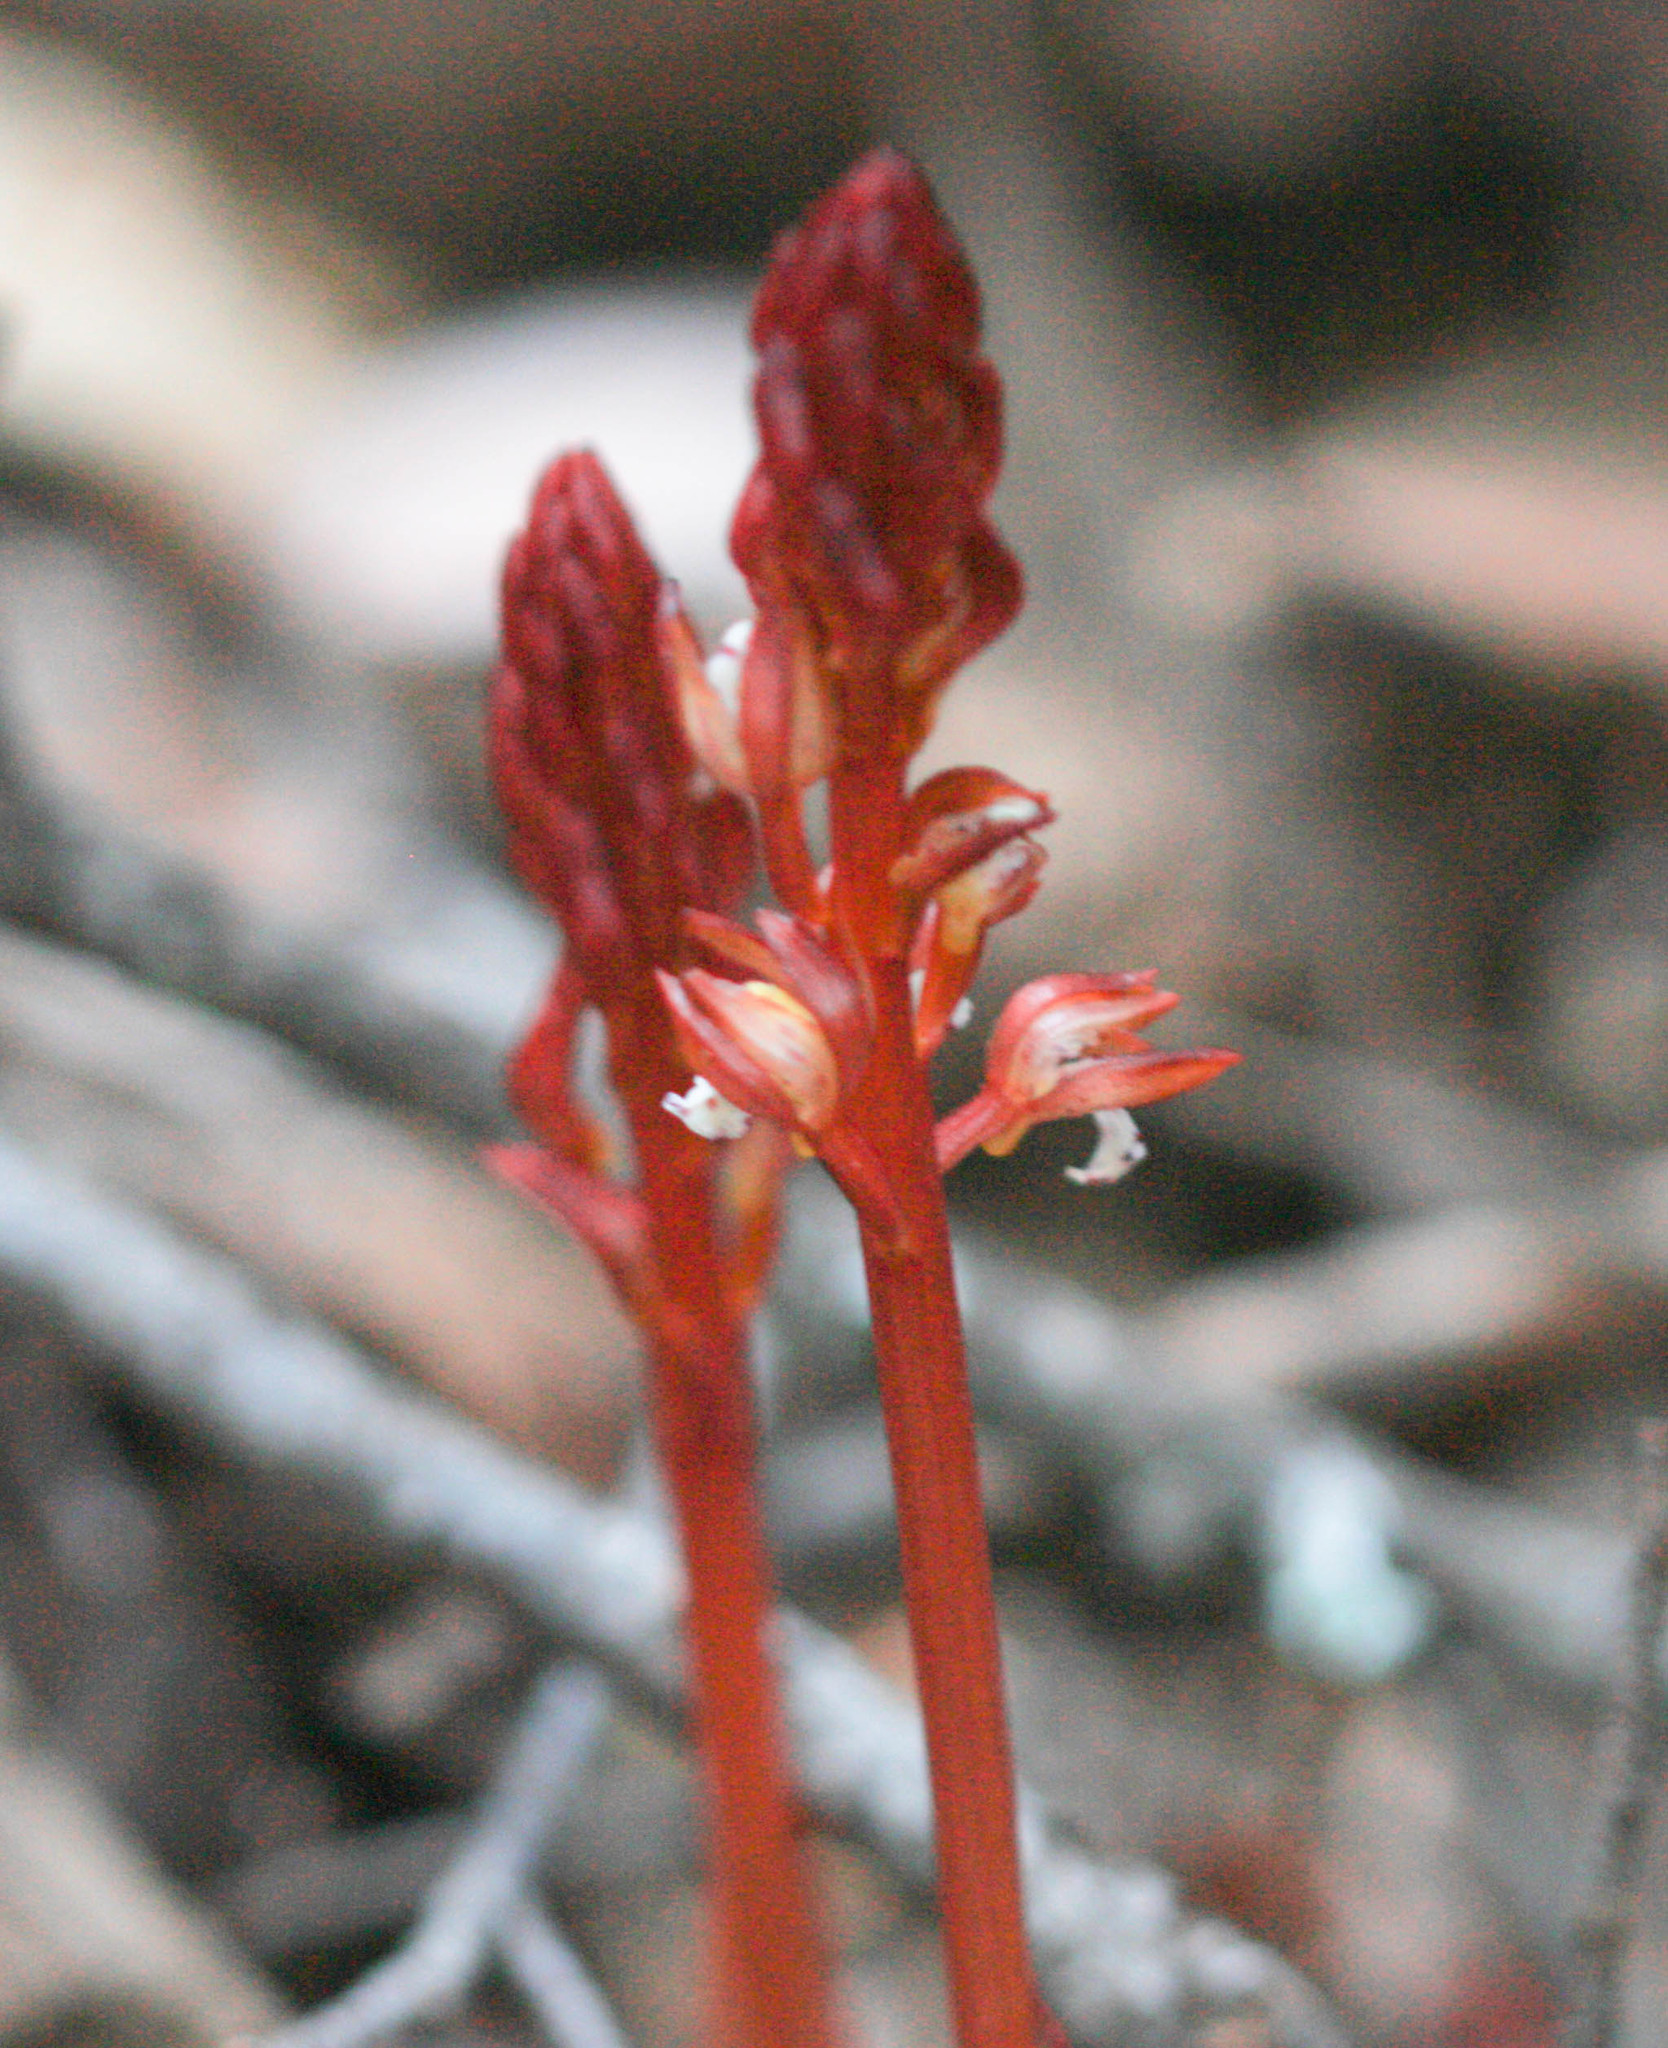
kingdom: Plantae
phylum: Tracheophyta
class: Liliopsida
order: Asparagales
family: Orchidaceae
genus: Corallorhiza
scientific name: Corallorhiza maculata
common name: Spotted coralroot
